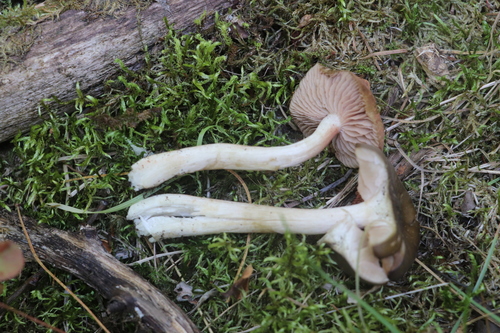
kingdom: Fungi
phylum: Basidiomycota
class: Agaricomycetes
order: Agaricales
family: Entolomataceae
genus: Entoloma
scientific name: Entoloma
